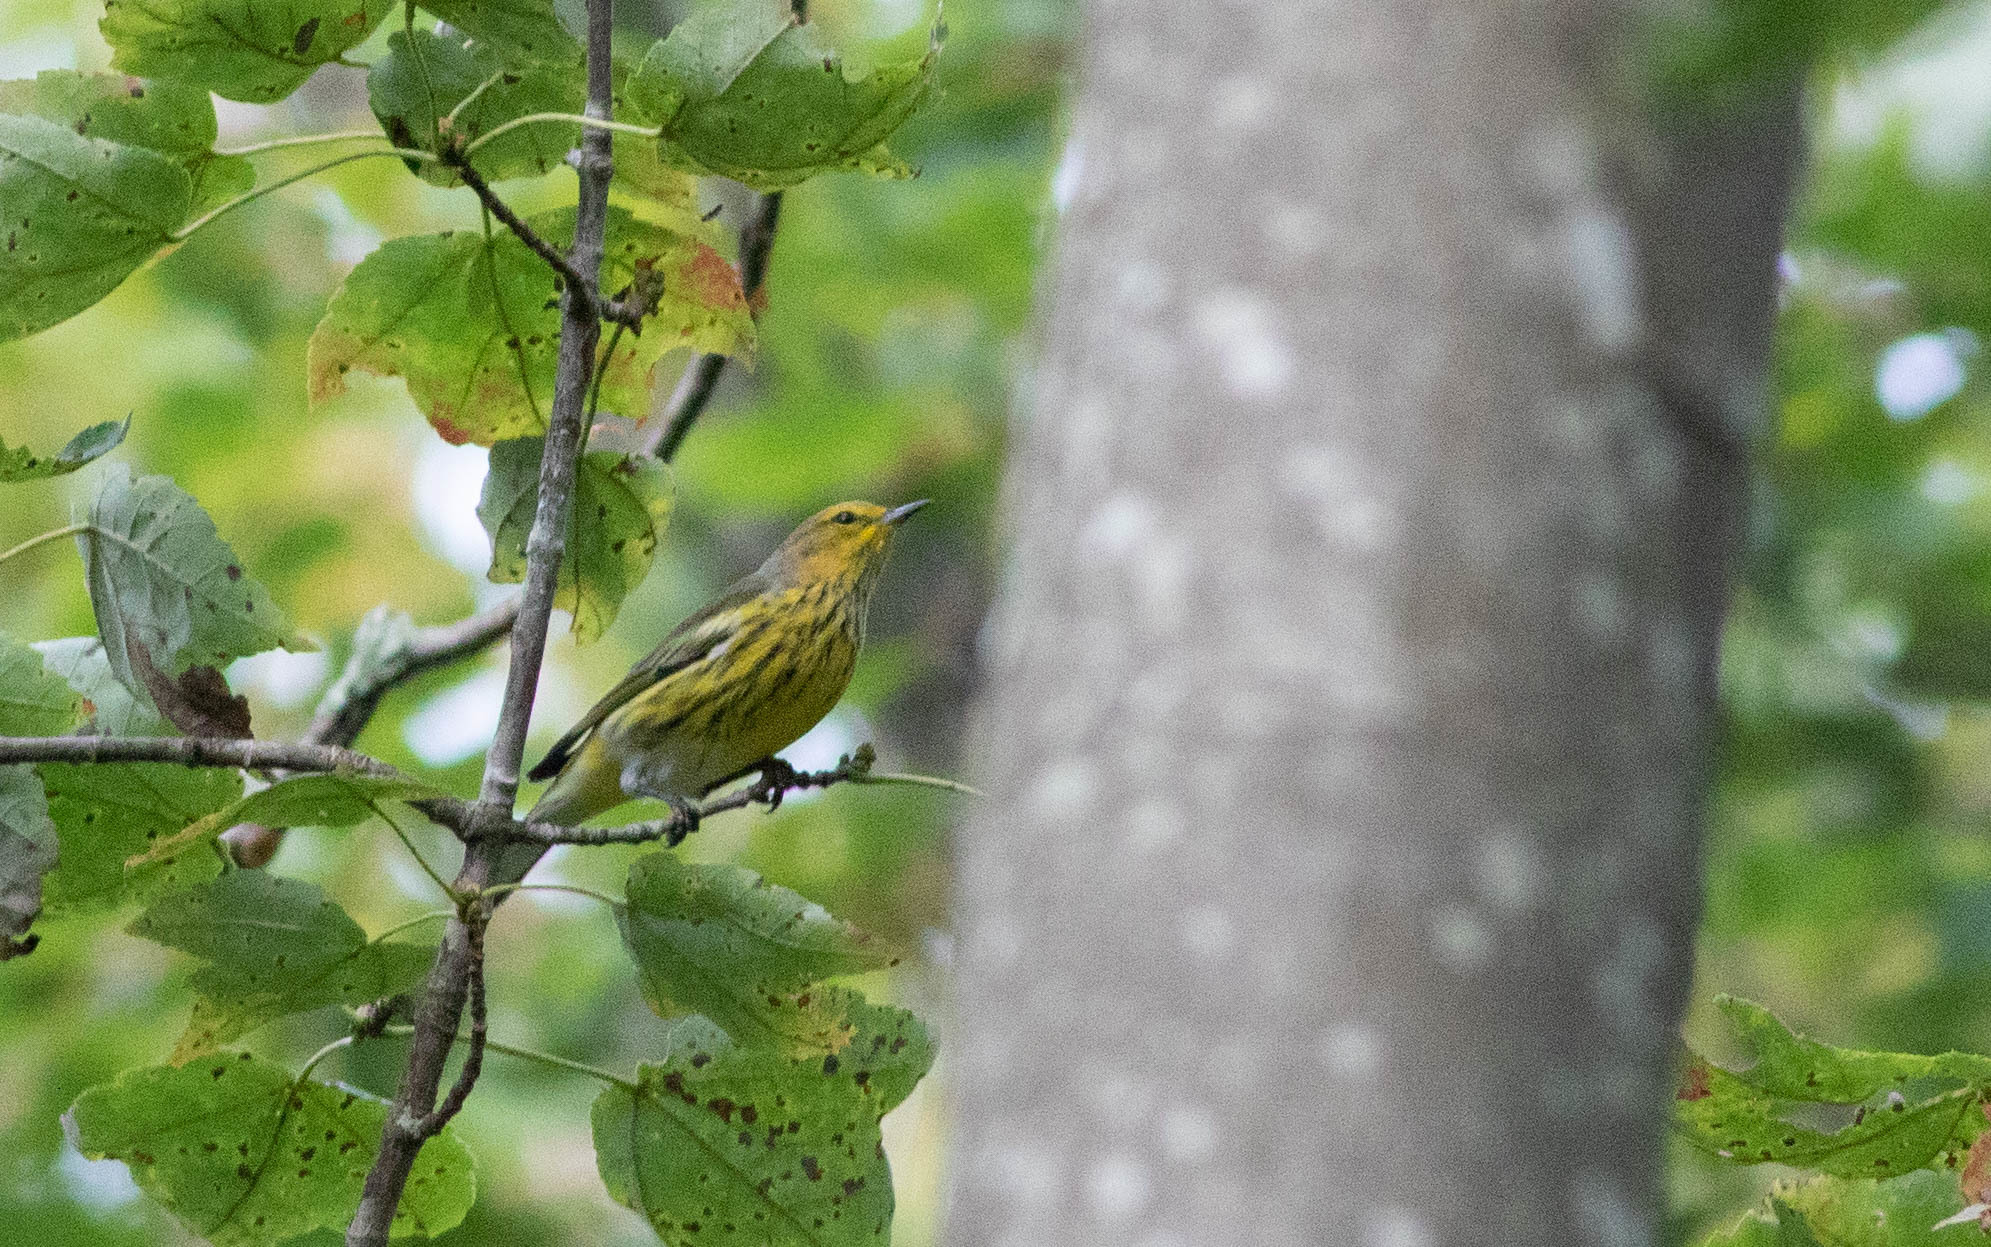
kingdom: Animalia
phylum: Chordata
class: Aves
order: Passeriformes
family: Parulidae
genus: Setophaga
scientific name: Setophaga tigrina
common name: Cape may warbler
